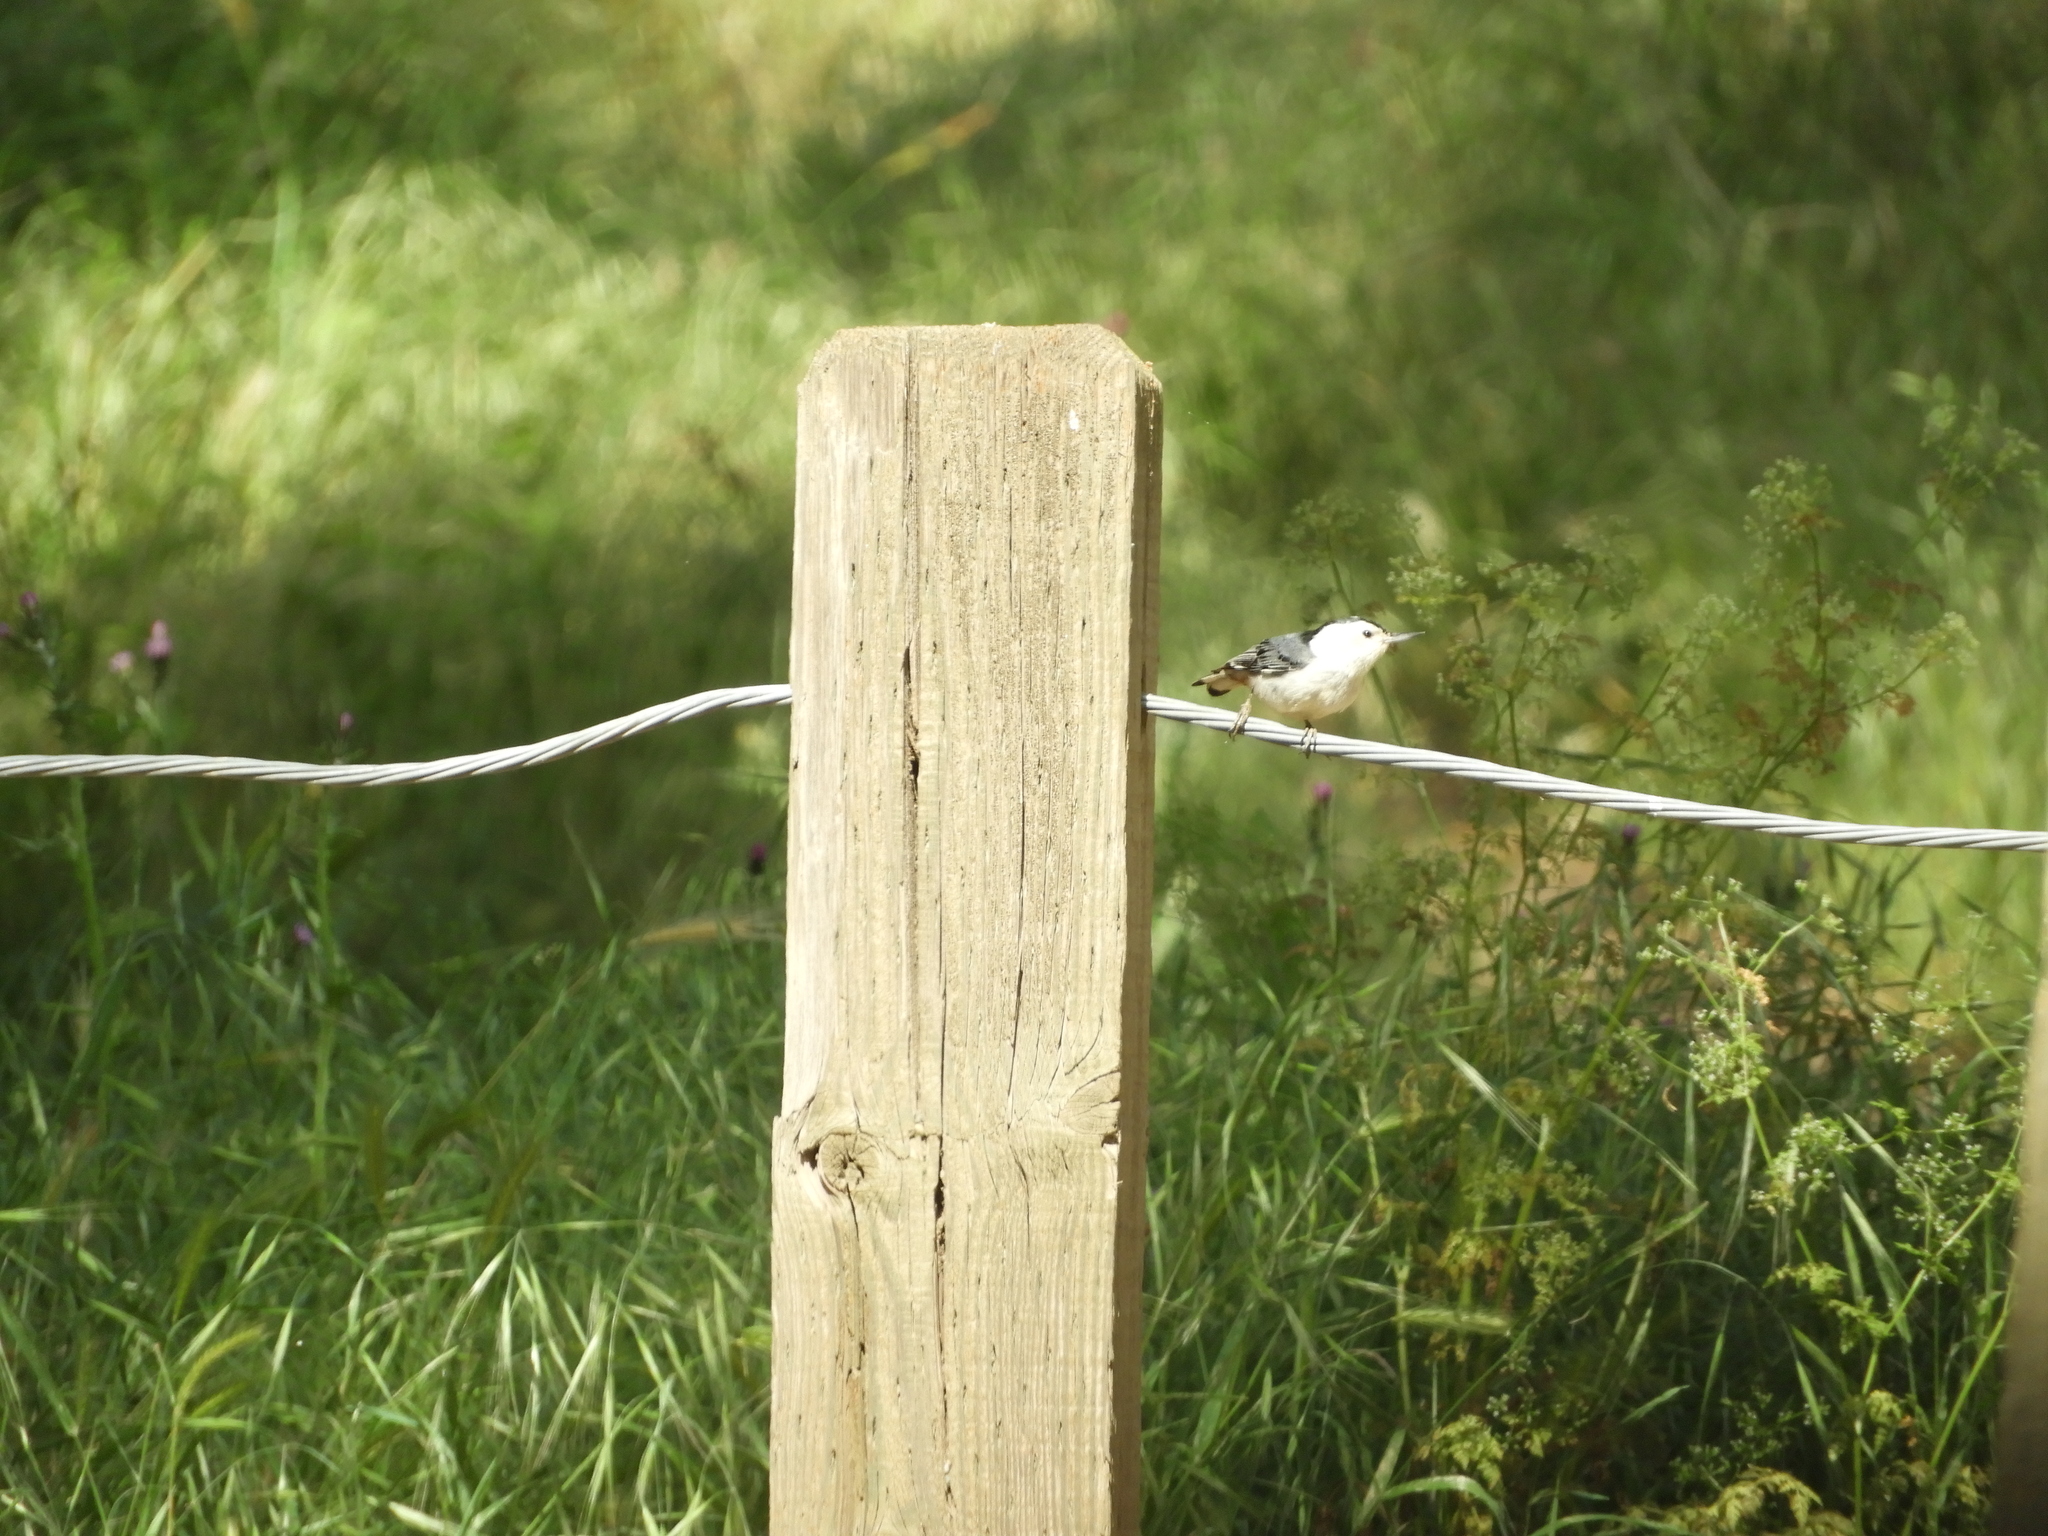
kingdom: Animalia
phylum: Chordata
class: Aves
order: Passeriformes
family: Sittidae
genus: Sitta
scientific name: Sitta carolinensis
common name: White-breasted nuthatch
